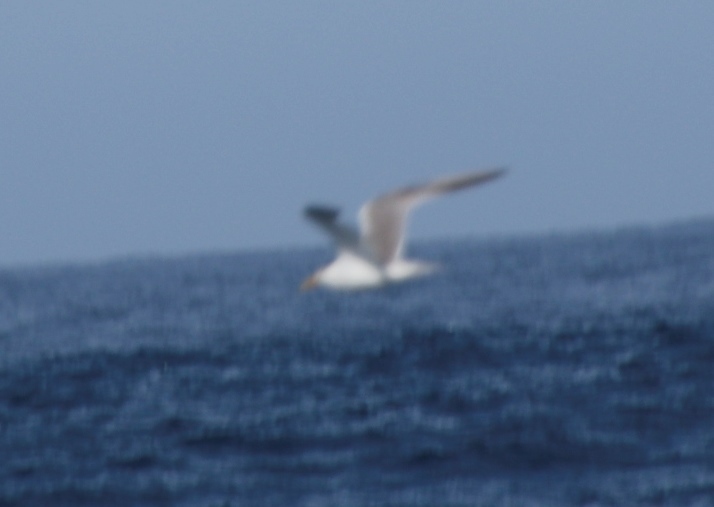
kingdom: Animalia
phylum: Chordata
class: Aves
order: Charadriiformes
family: Laridae
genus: Thalasseus
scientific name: Thalasseus bergii
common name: Greater crested tern
